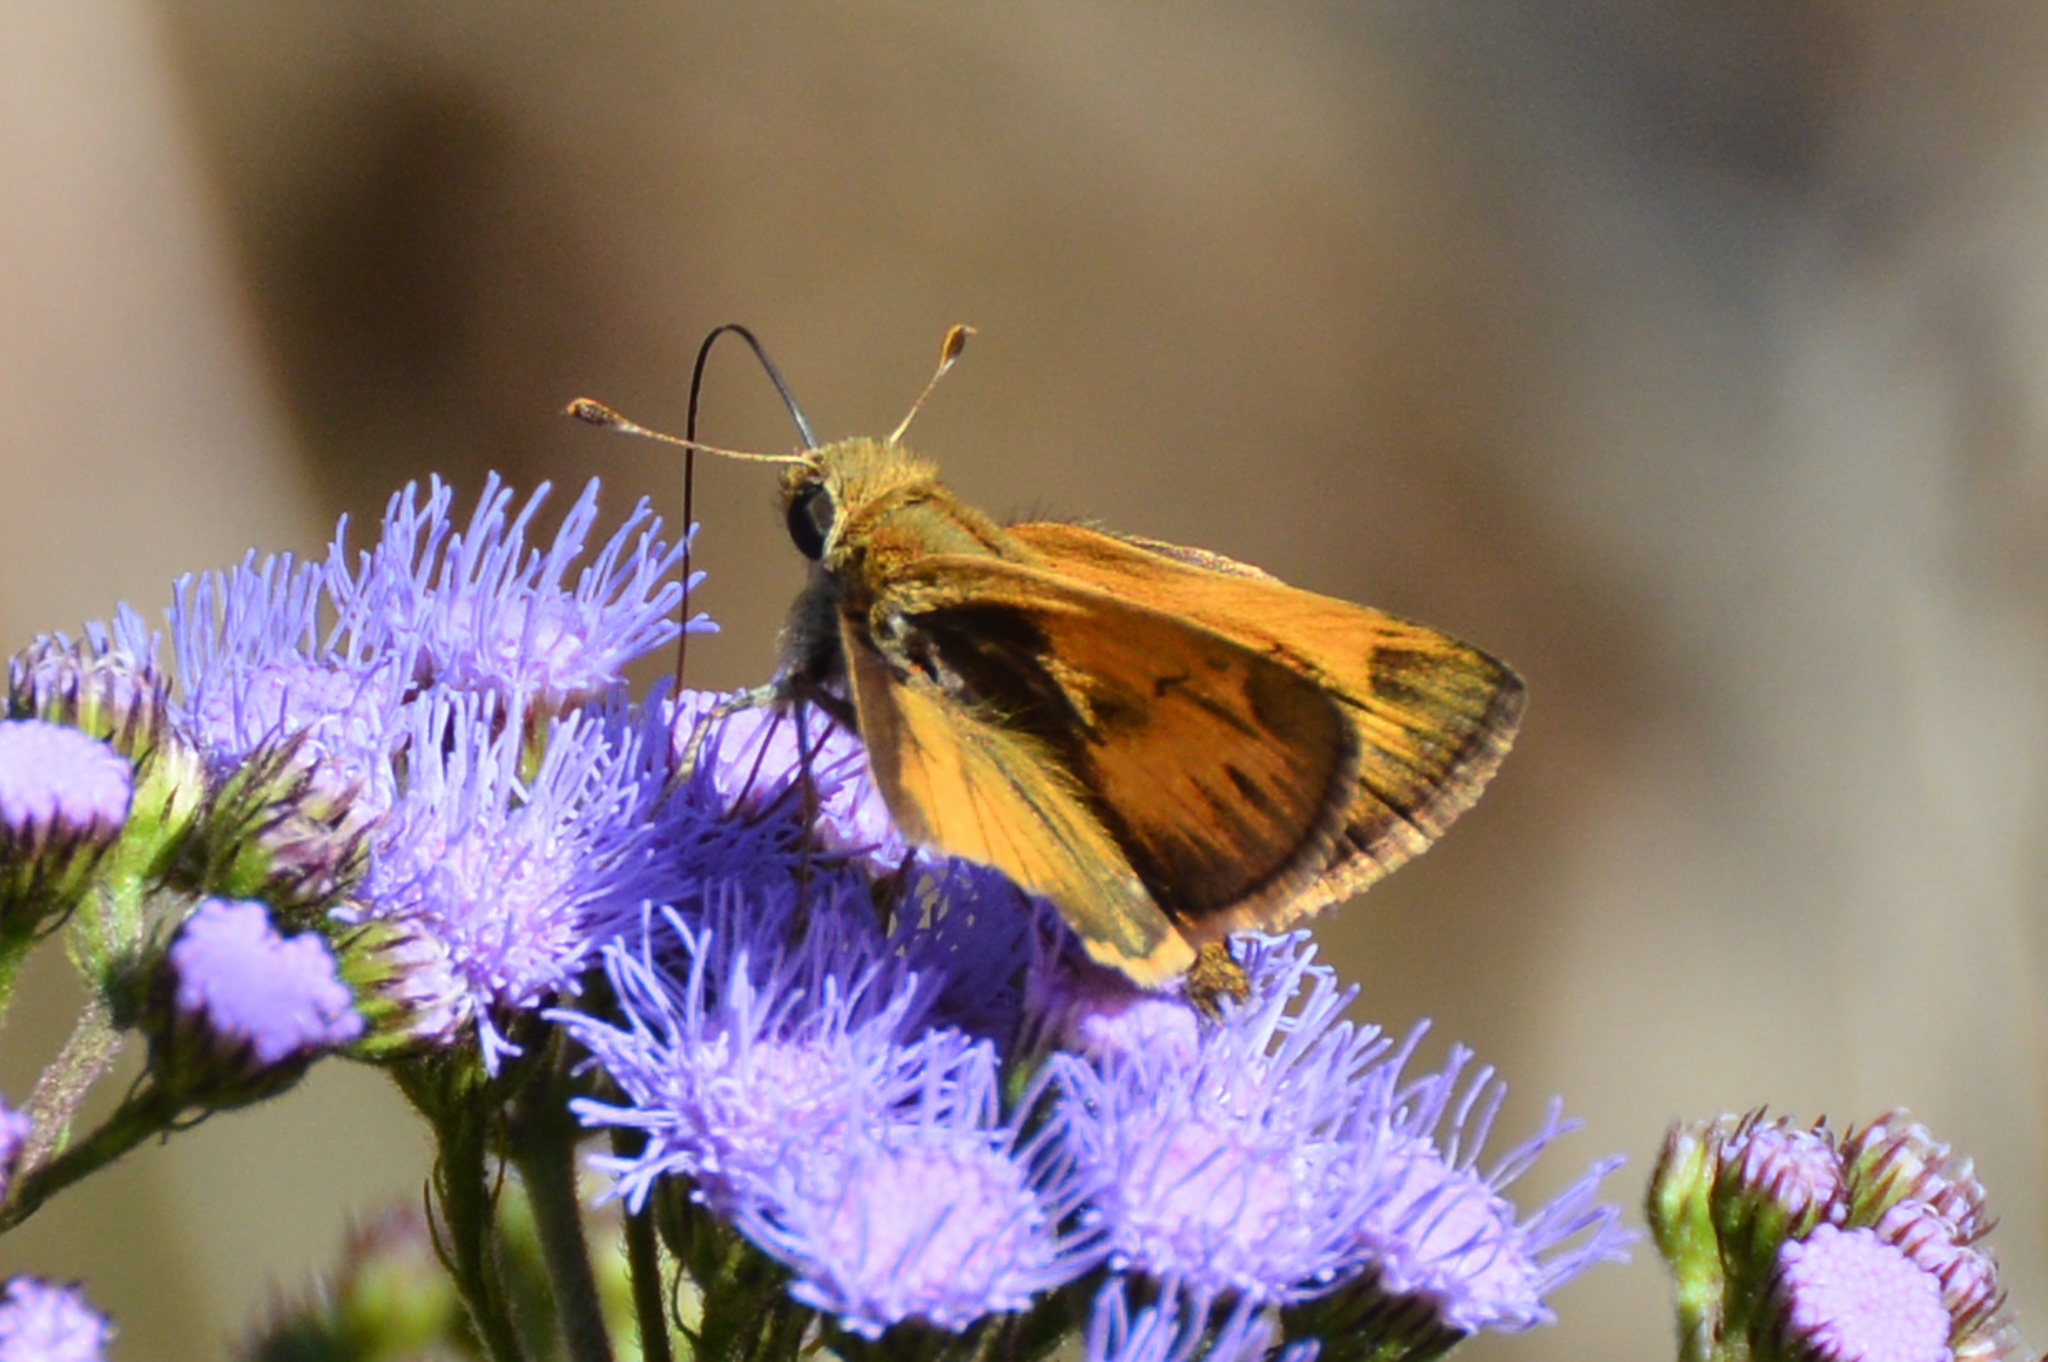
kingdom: Animalia
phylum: Arthropoda
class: Insecta
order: Lepidoptera
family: Hesperiidae
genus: Polites
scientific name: Polites vibex
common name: Whirlabout
